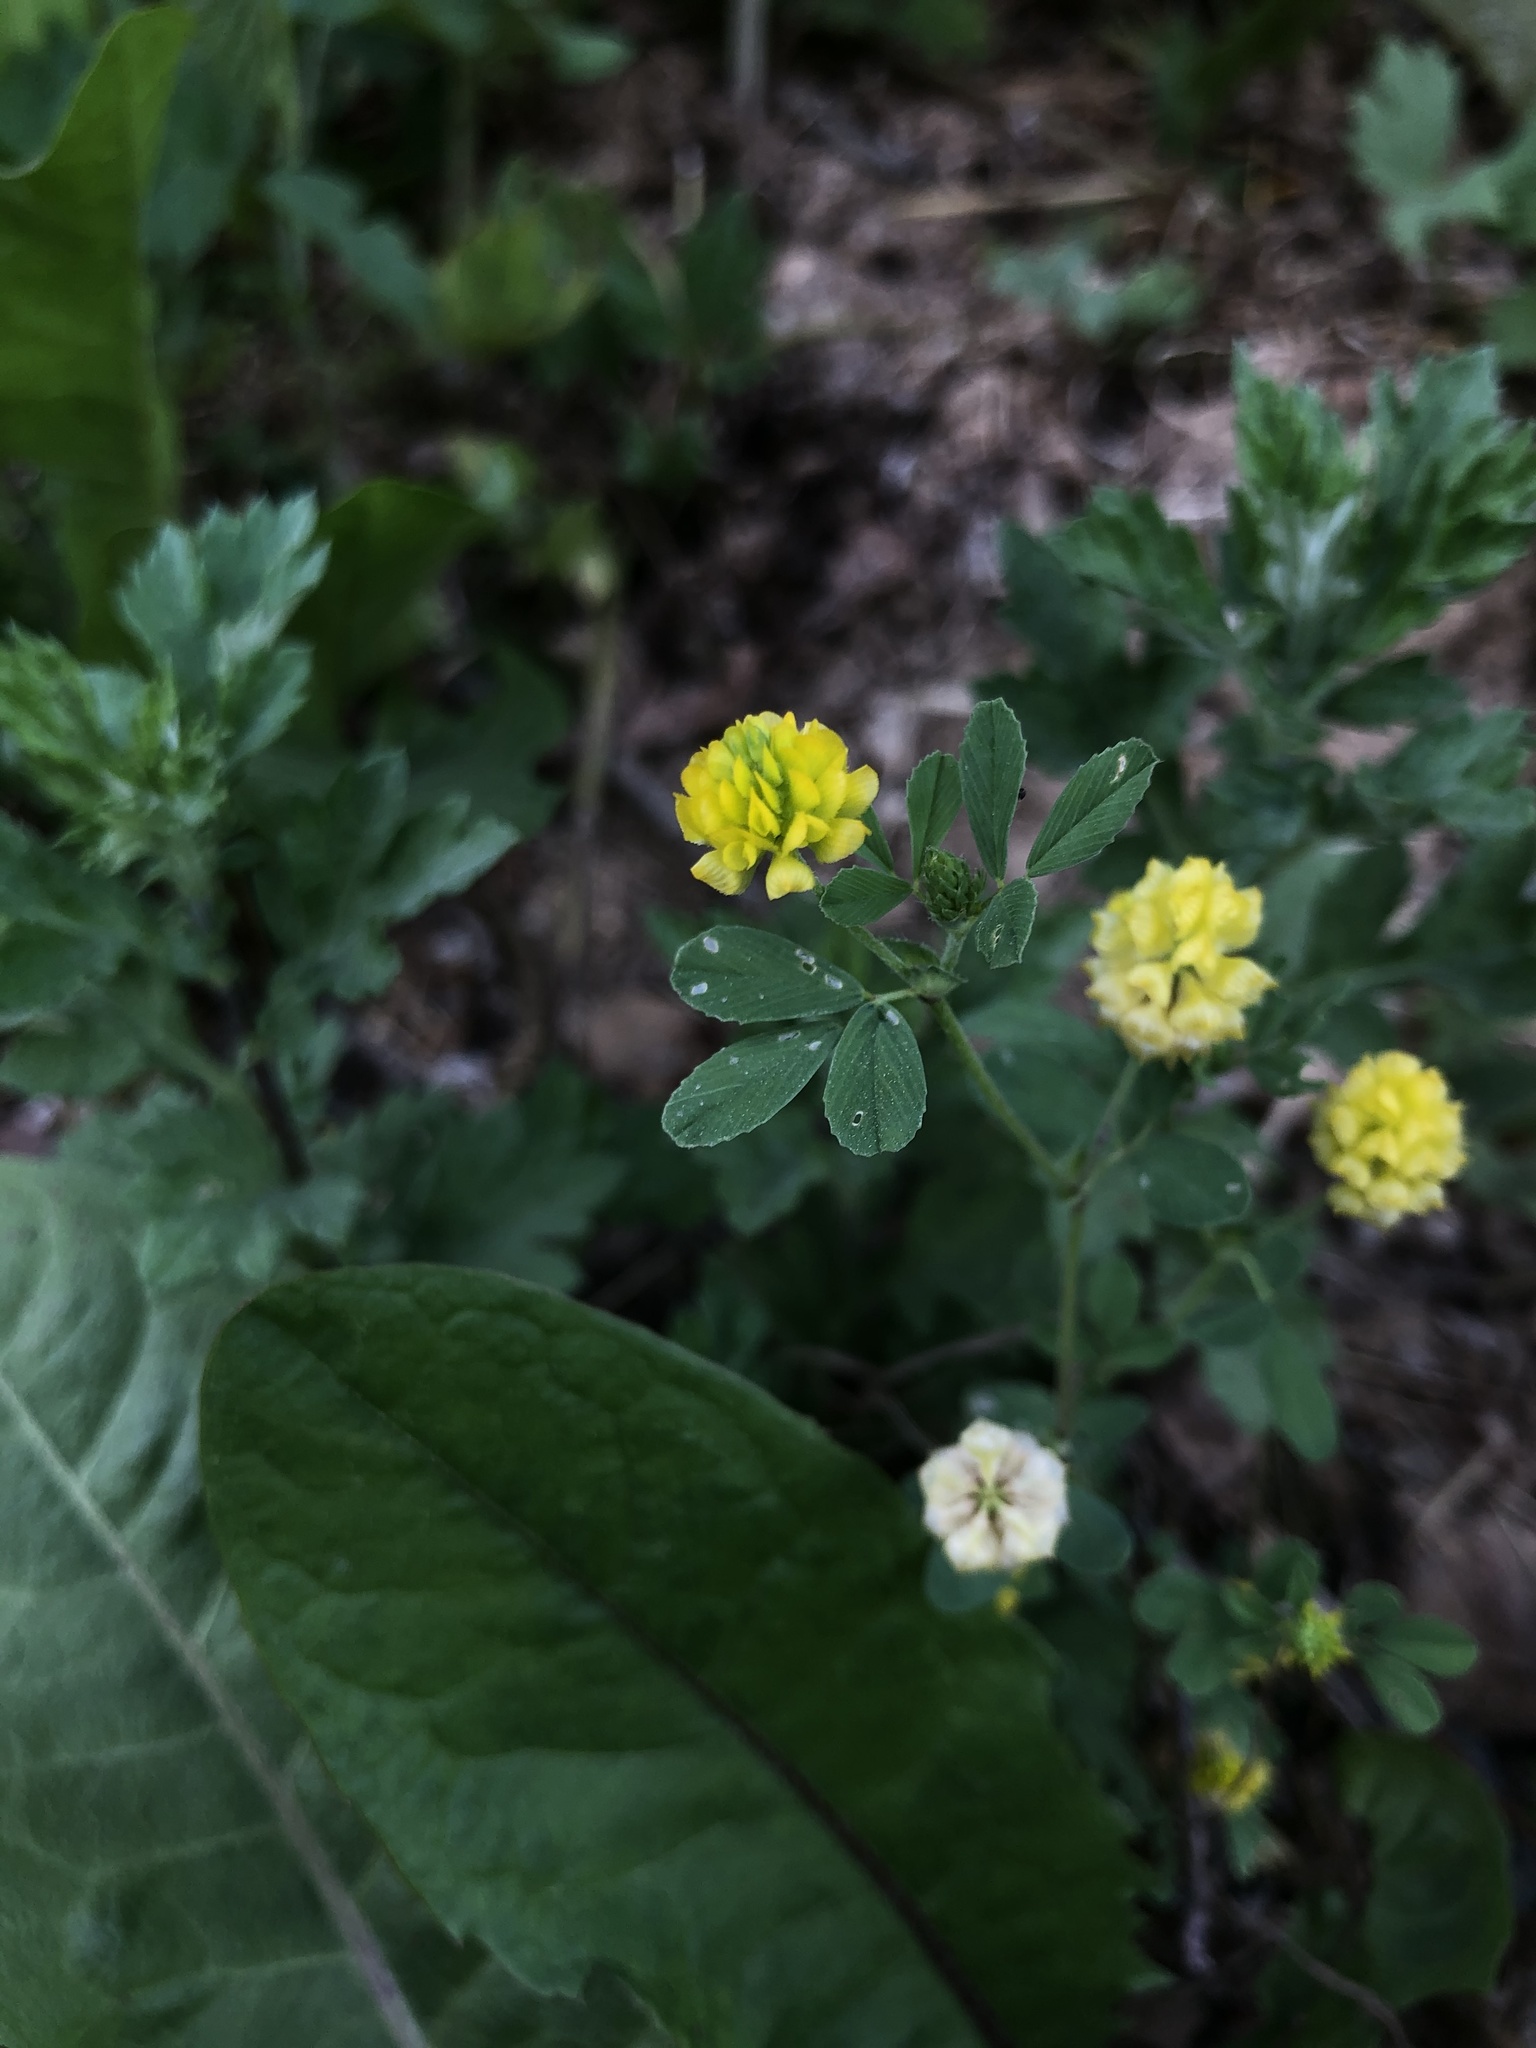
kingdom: Plantae
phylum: Tracheophyta
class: Magnoliopsida
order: Fabales
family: Fabaceae
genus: Trifolium
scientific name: Trifolium campestre
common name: Field clover
